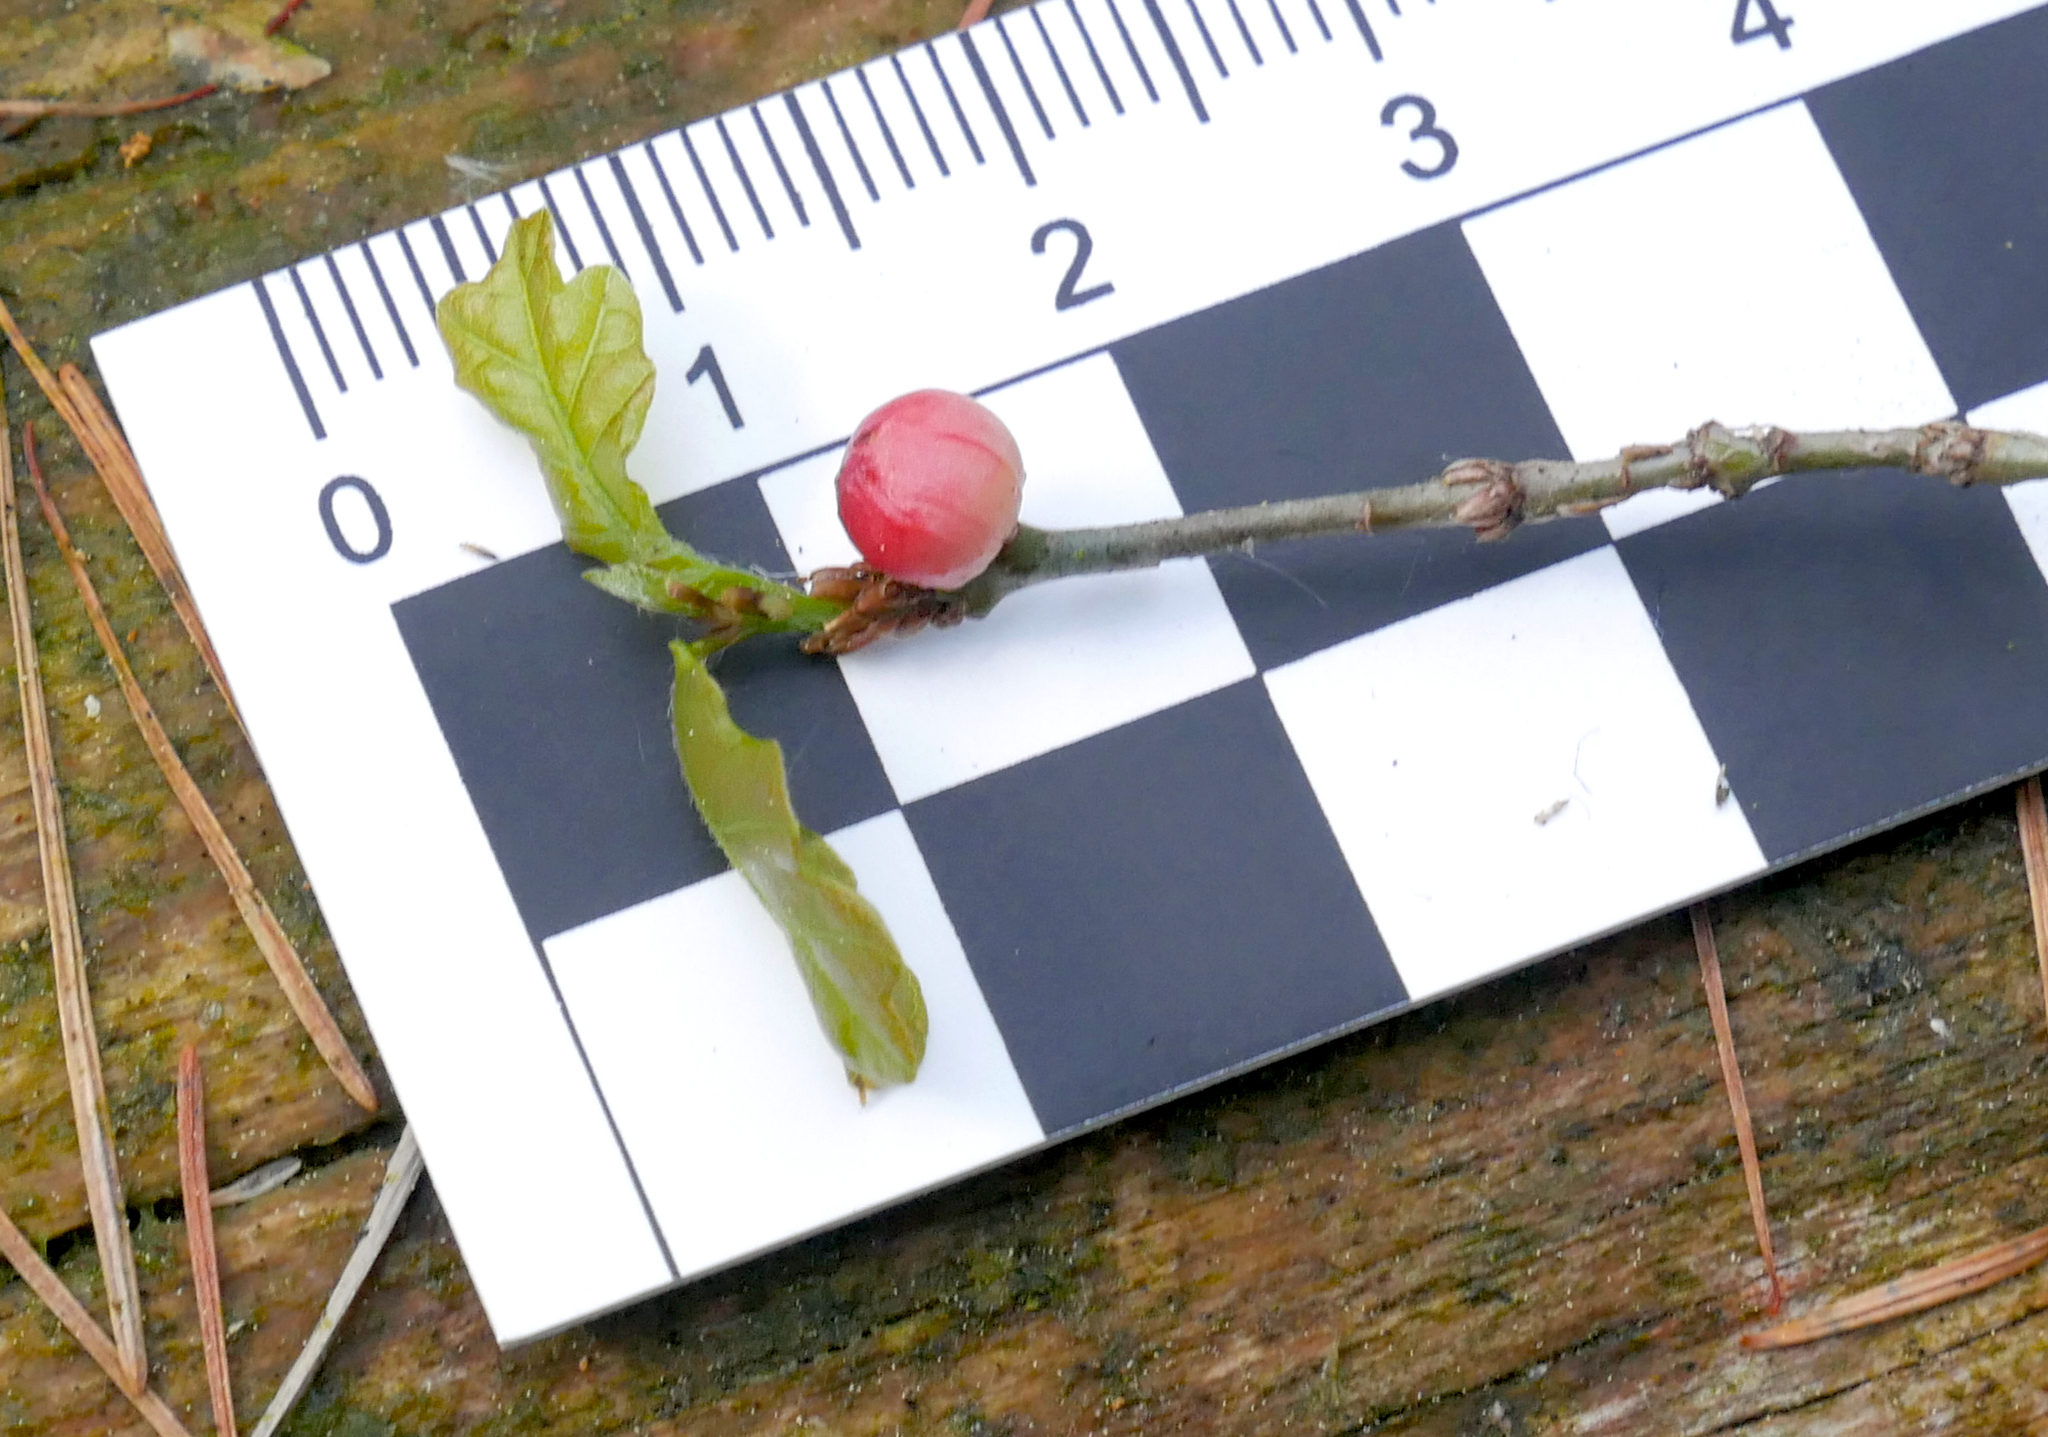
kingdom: Animalia
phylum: Arthropoda
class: Insecta
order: Hymenoptera
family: Cynipidae
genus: Trigonaspis
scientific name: Trigonaspis megaptera
